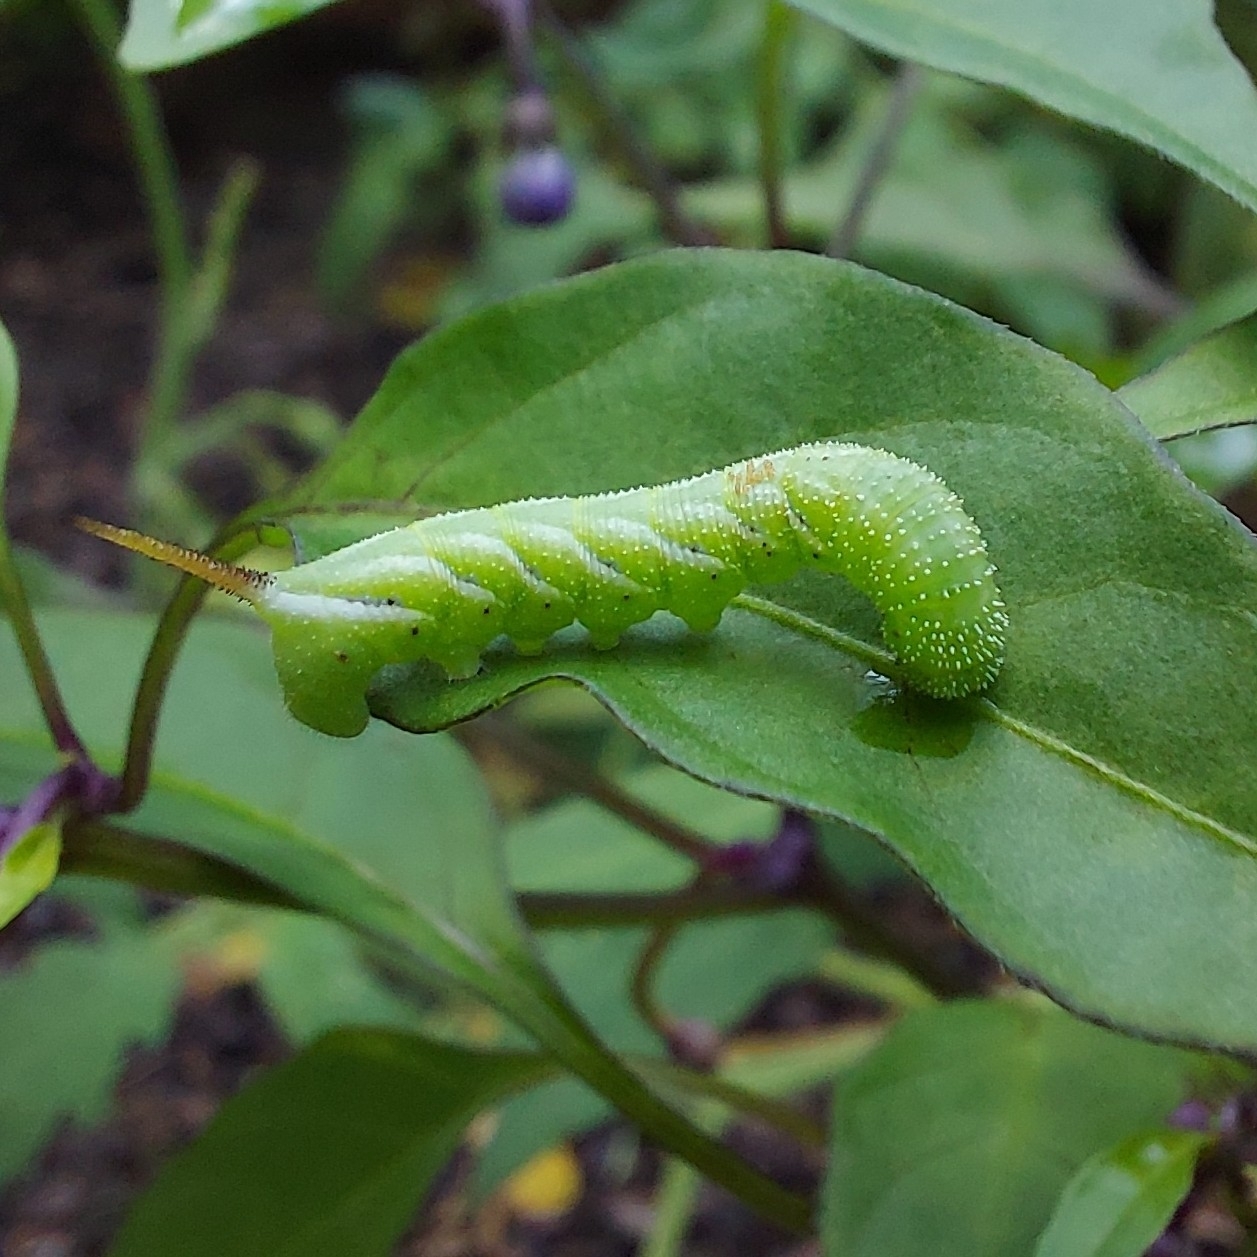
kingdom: Animalia
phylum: Arthropoda
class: Insecta
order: Lepidoptera
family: Sphingidae
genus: Manduca
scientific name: Manduca sexta
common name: Carolina sphinx
